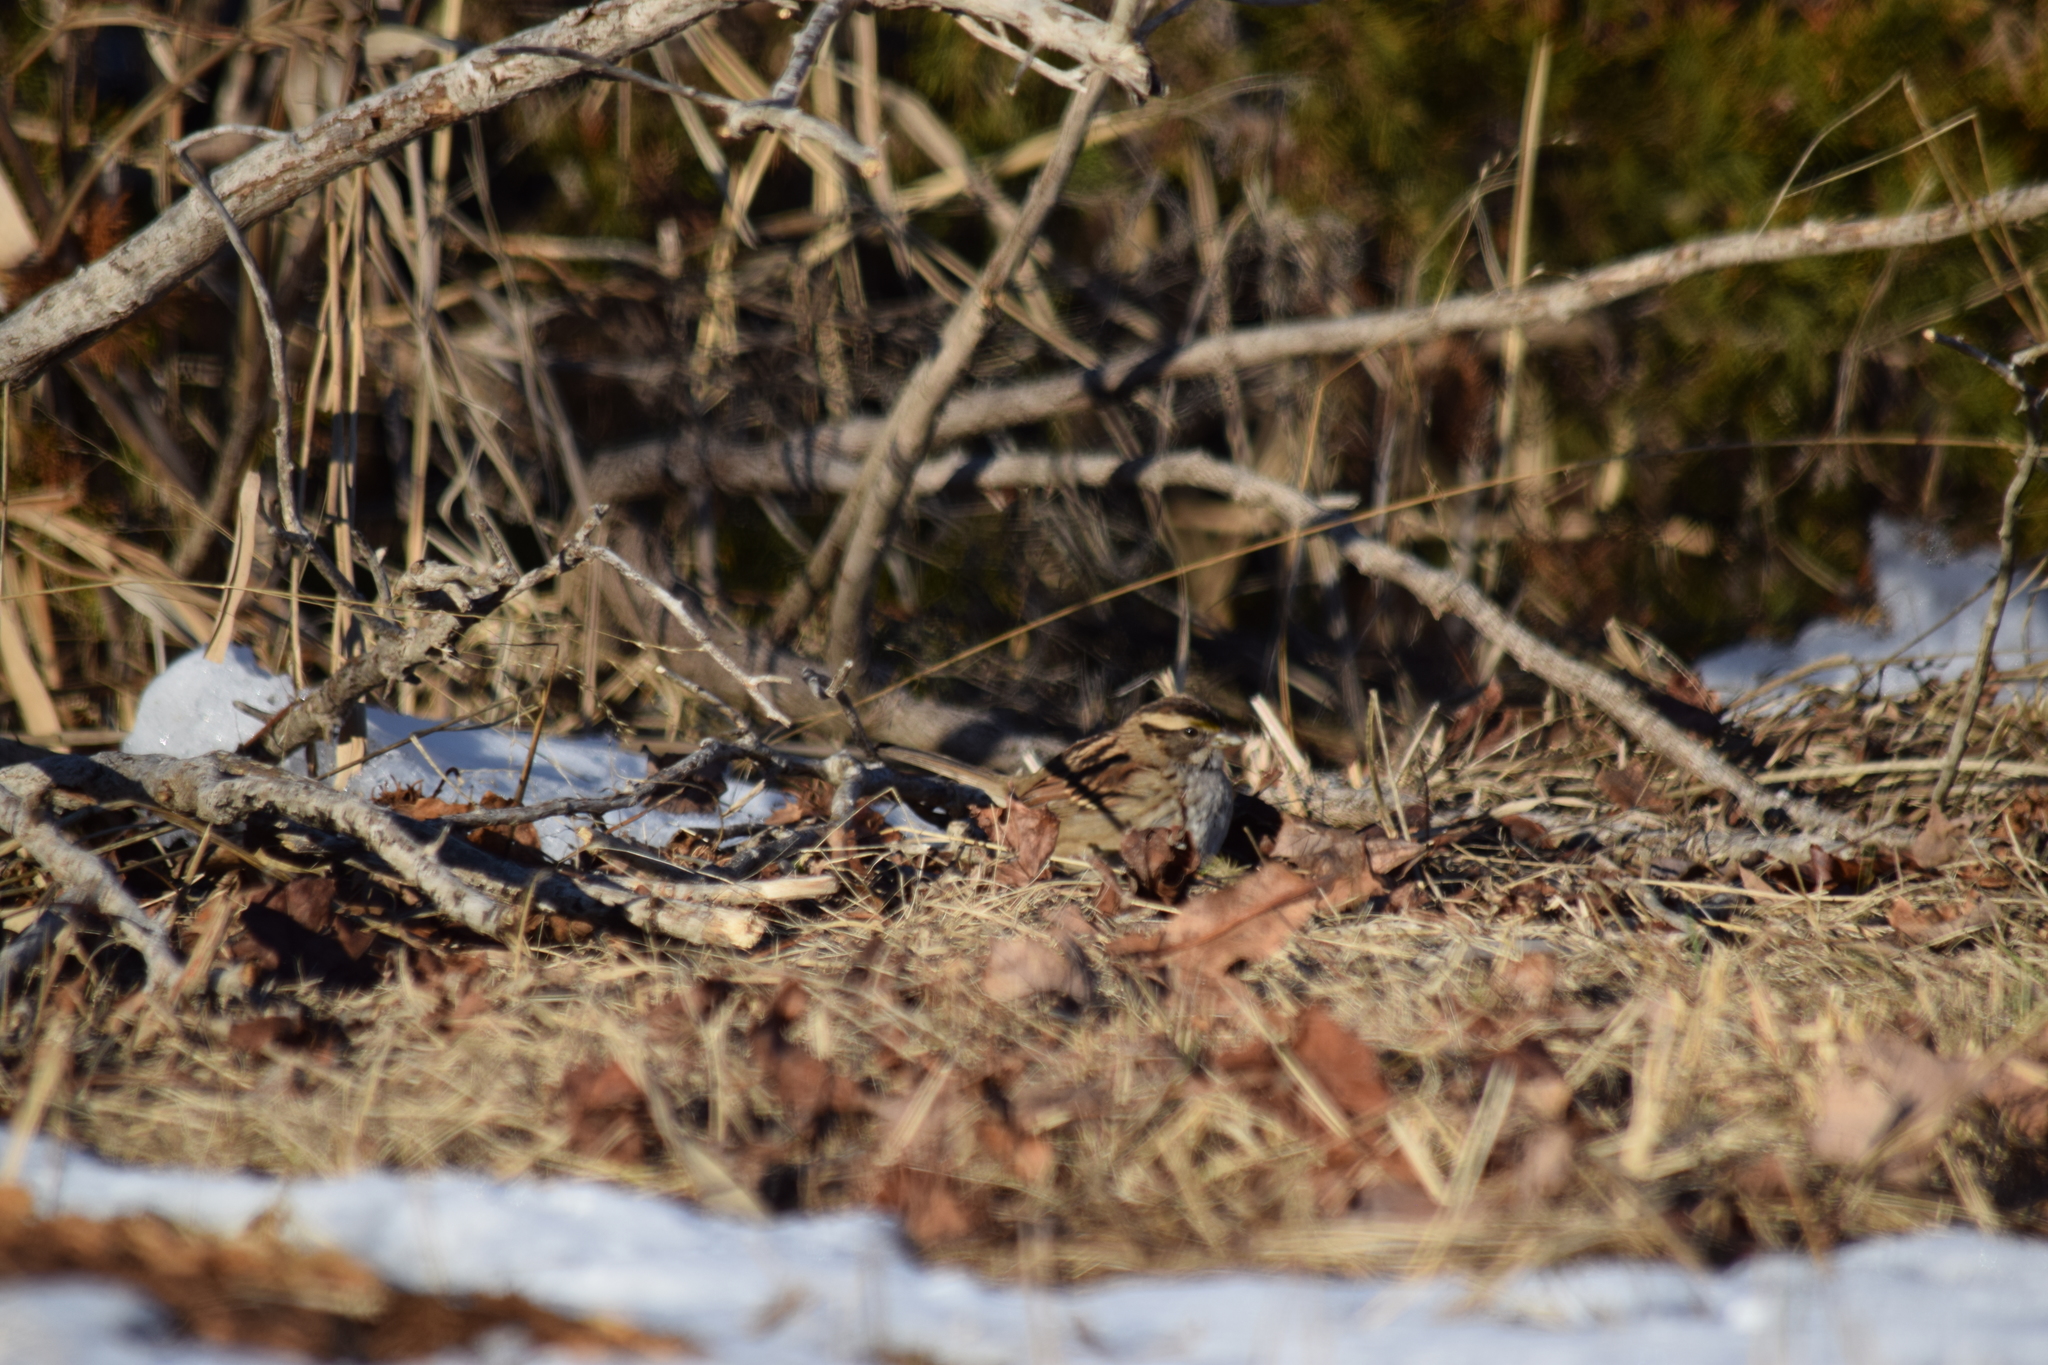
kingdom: Animalia
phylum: Chordata
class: Aves
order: Passeriformes
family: Passerellidae
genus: Zonotrichia
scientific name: Zonotrichia albicollis
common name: White-throated sparrow
